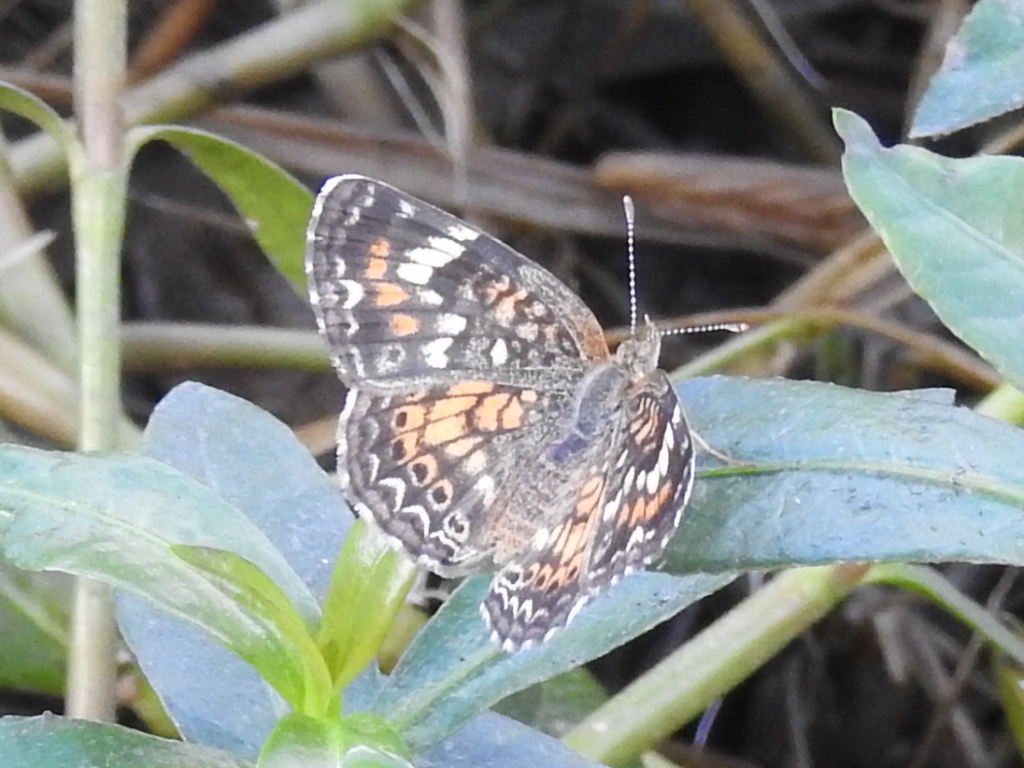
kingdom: Animalia
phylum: Arthropoda
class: Insecta
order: Lepidoptera
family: Nymphalidae
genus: Phyciodes
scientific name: Phyciodes phaon
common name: Phaon crescent
